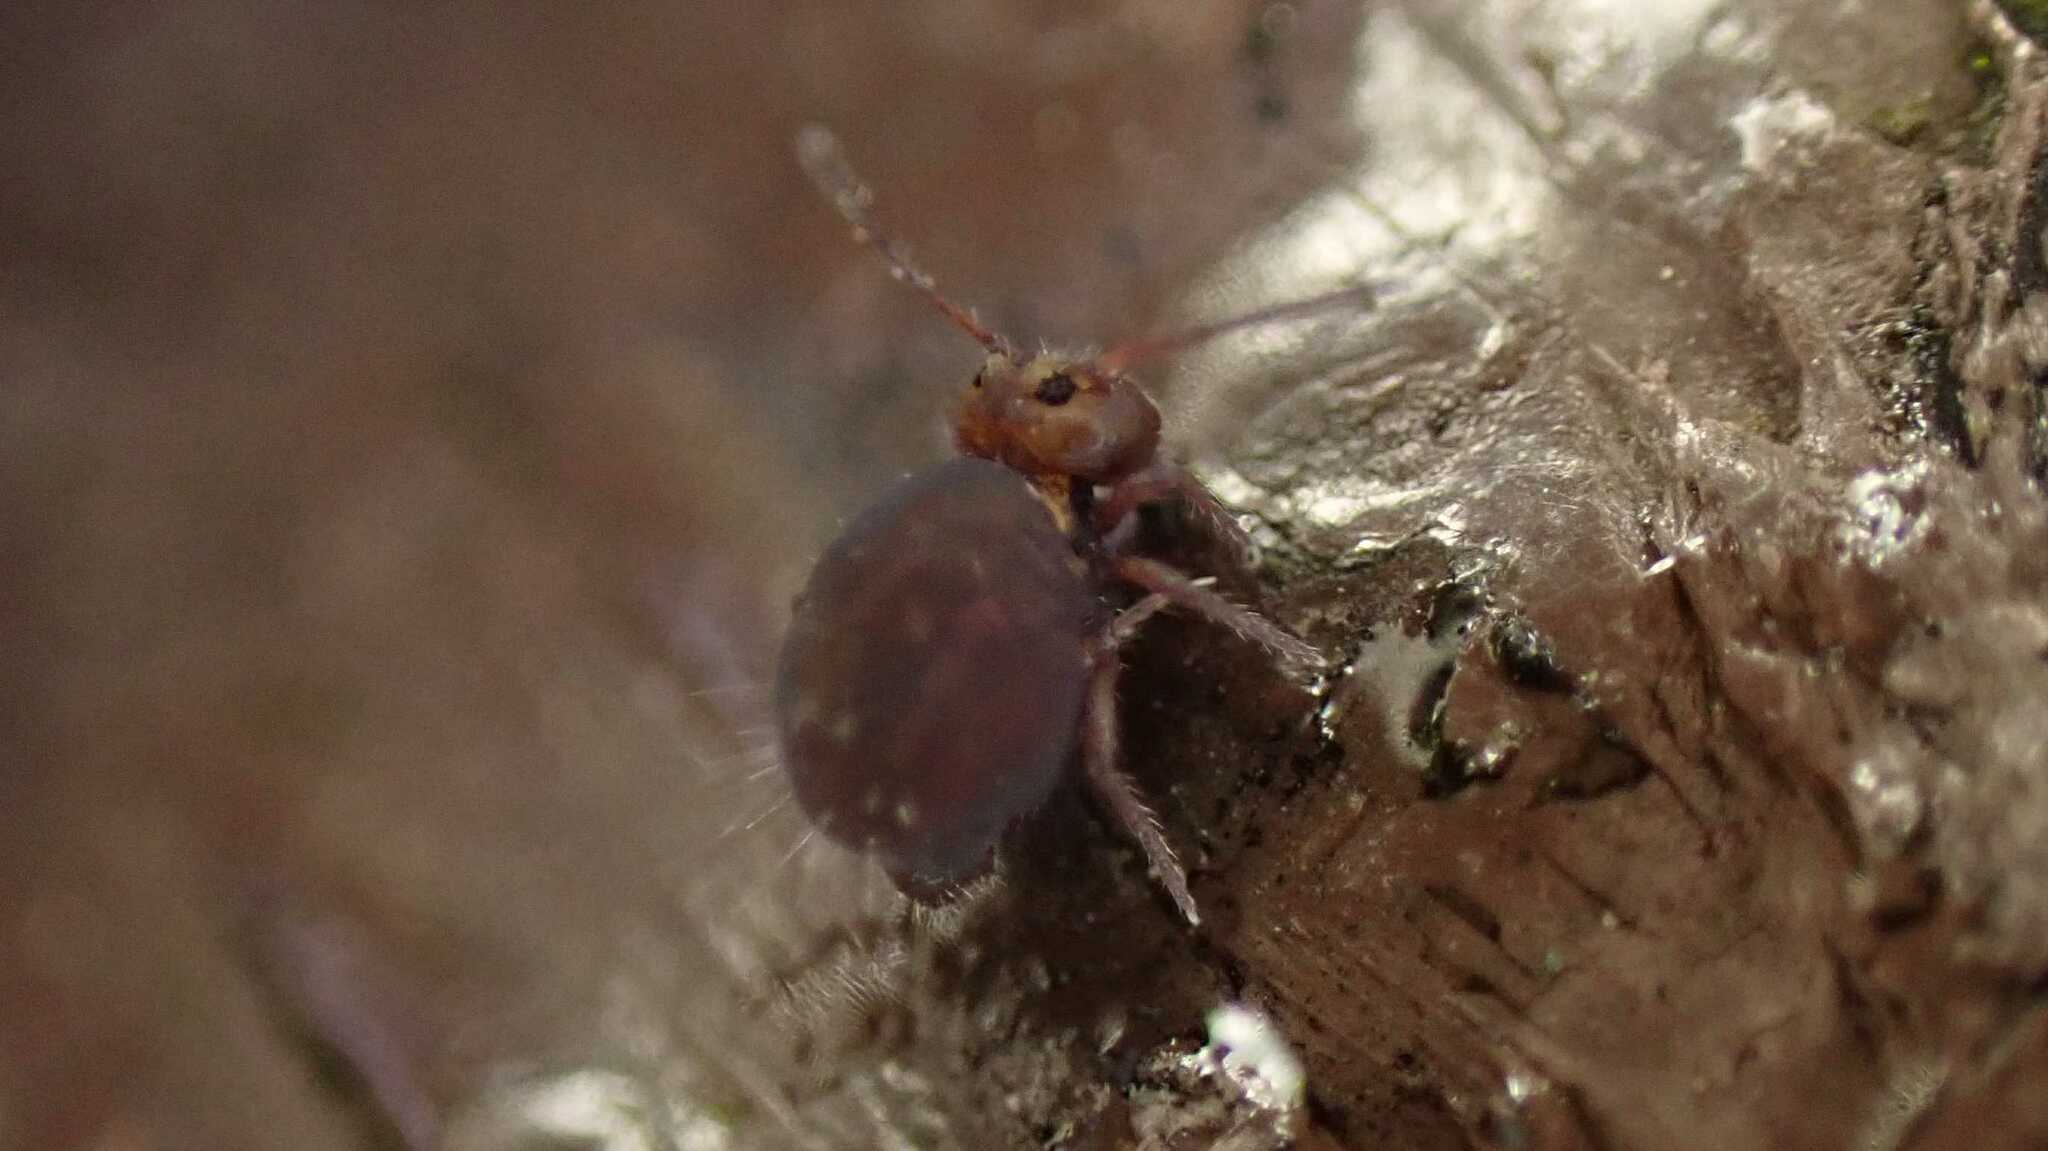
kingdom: Animalia
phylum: Arthropoda
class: Collembola
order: Symphypleona
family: Dicyrtomidae
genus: Dicyrtoma
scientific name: Dicyrtoma fusca
